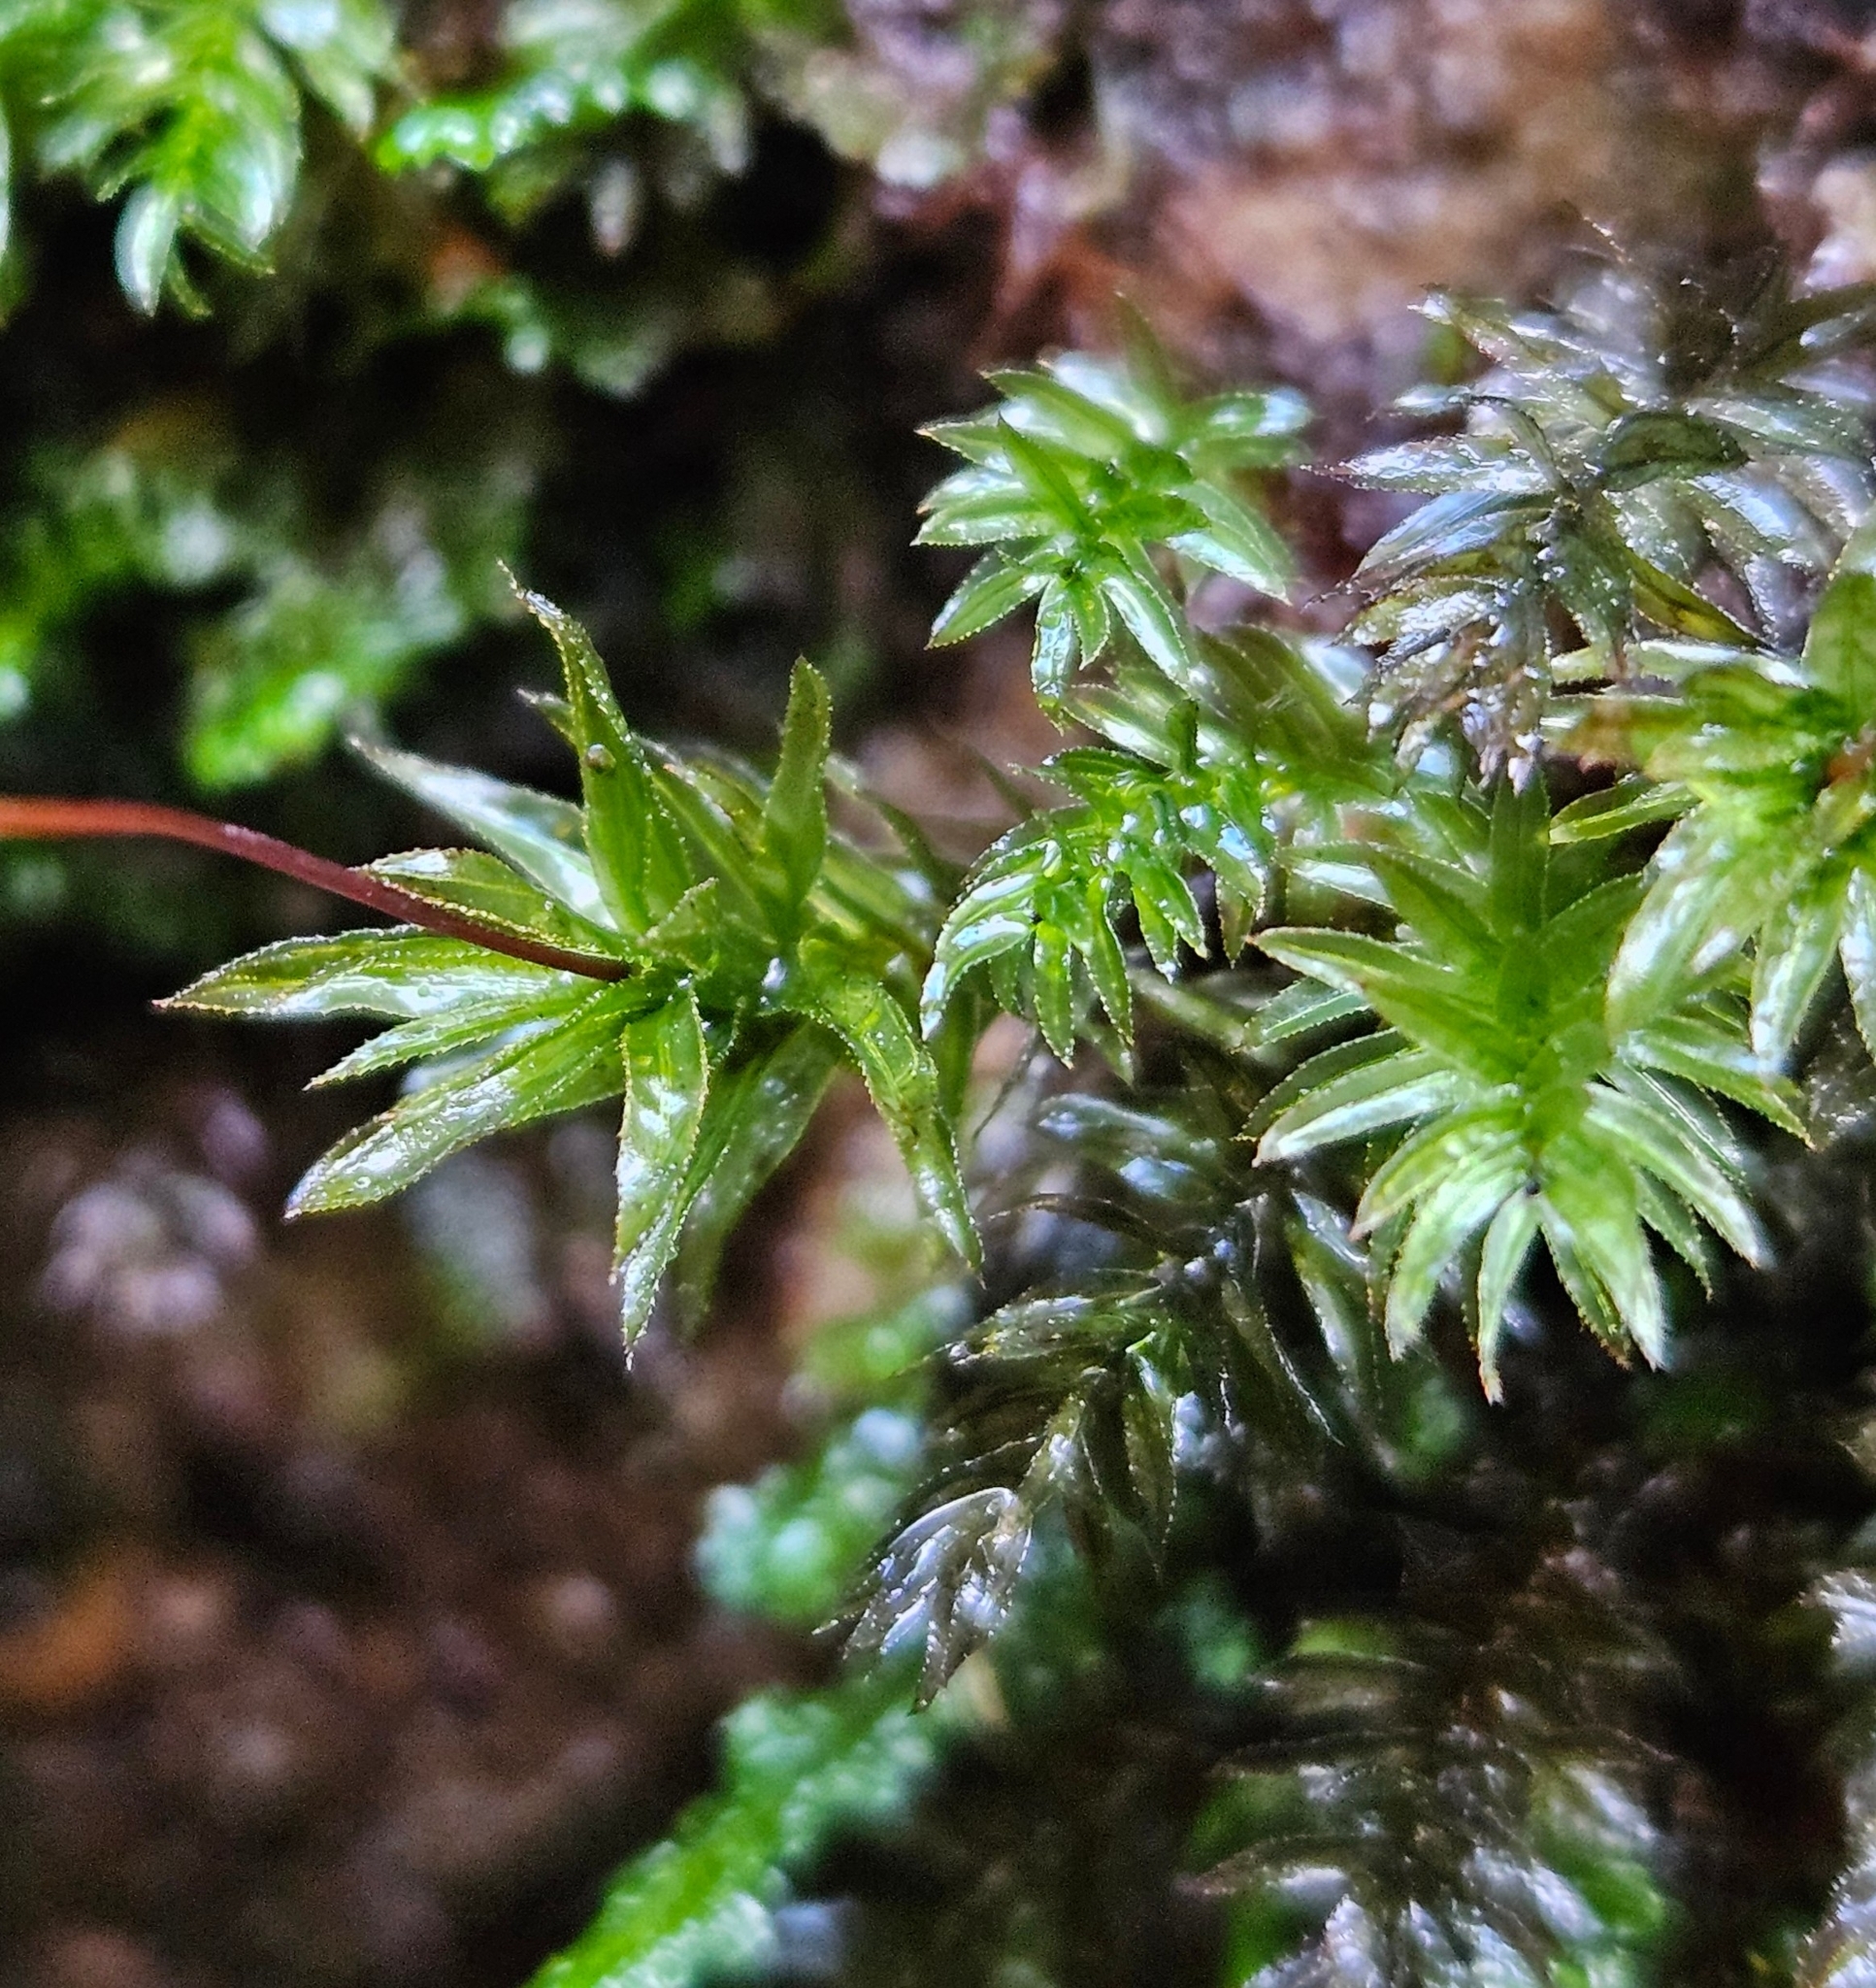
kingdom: Plantae
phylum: Bryophyta
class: Bryopsida
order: Bryales
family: Mniaceae
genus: Mnium
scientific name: Mnium hornum
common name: Swan's-neck leafy moss
